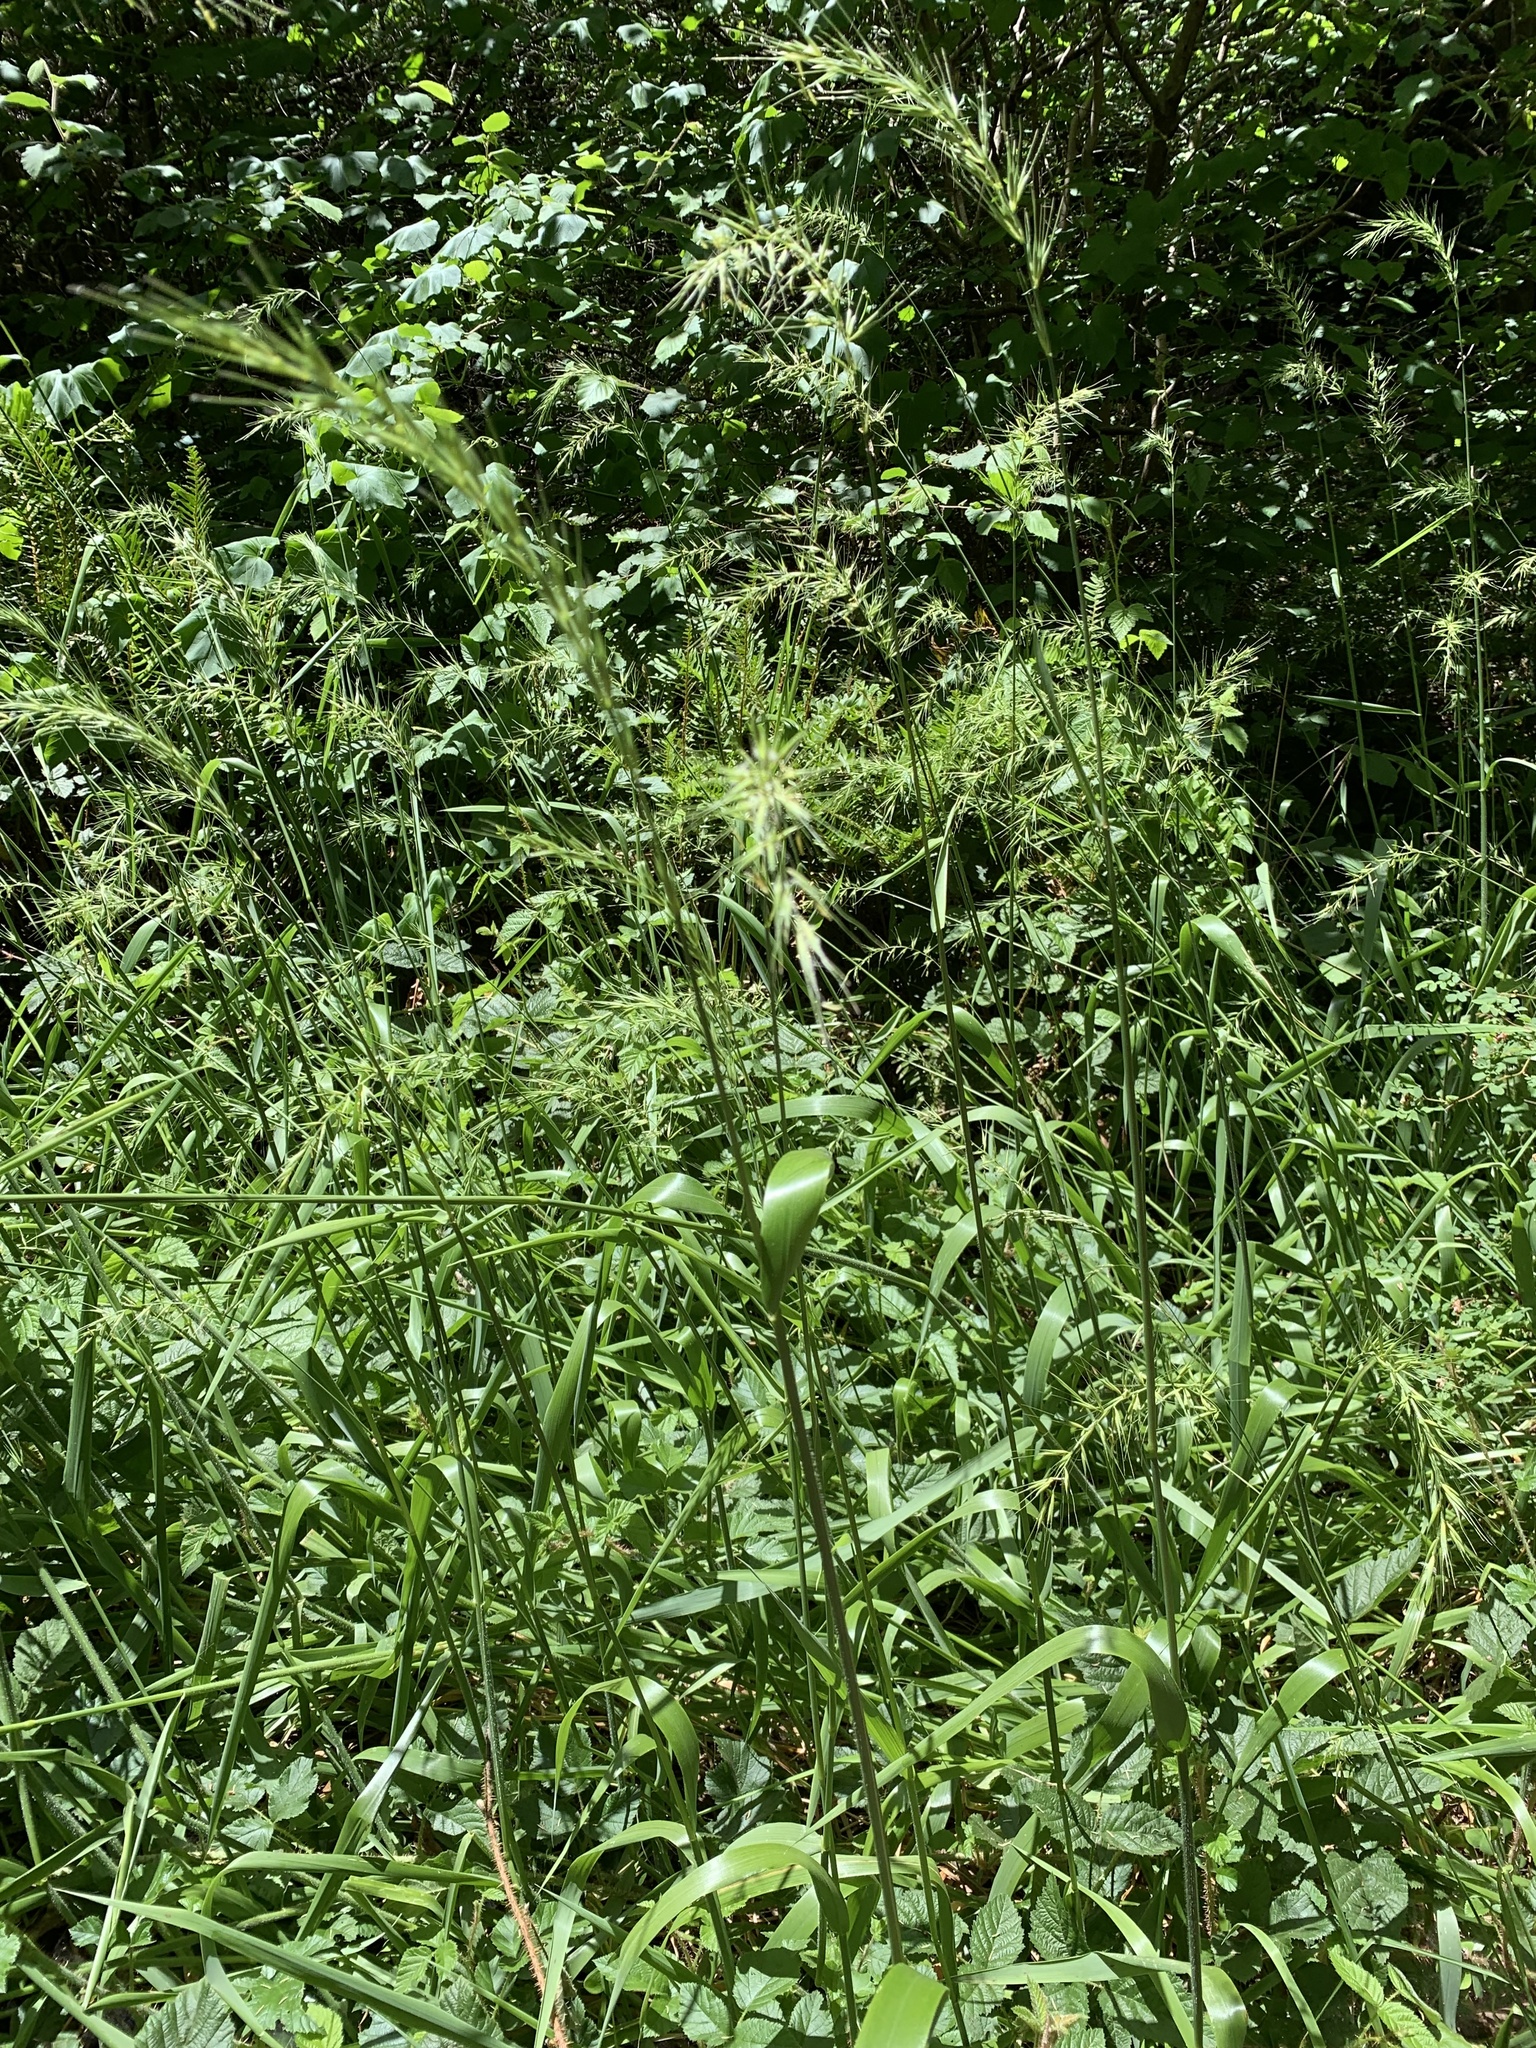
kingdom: Plantae
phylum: Tracheophyta
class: Liliopsida
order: Poales
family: Poaceae
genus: Elymus
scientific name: Elymus californicus
